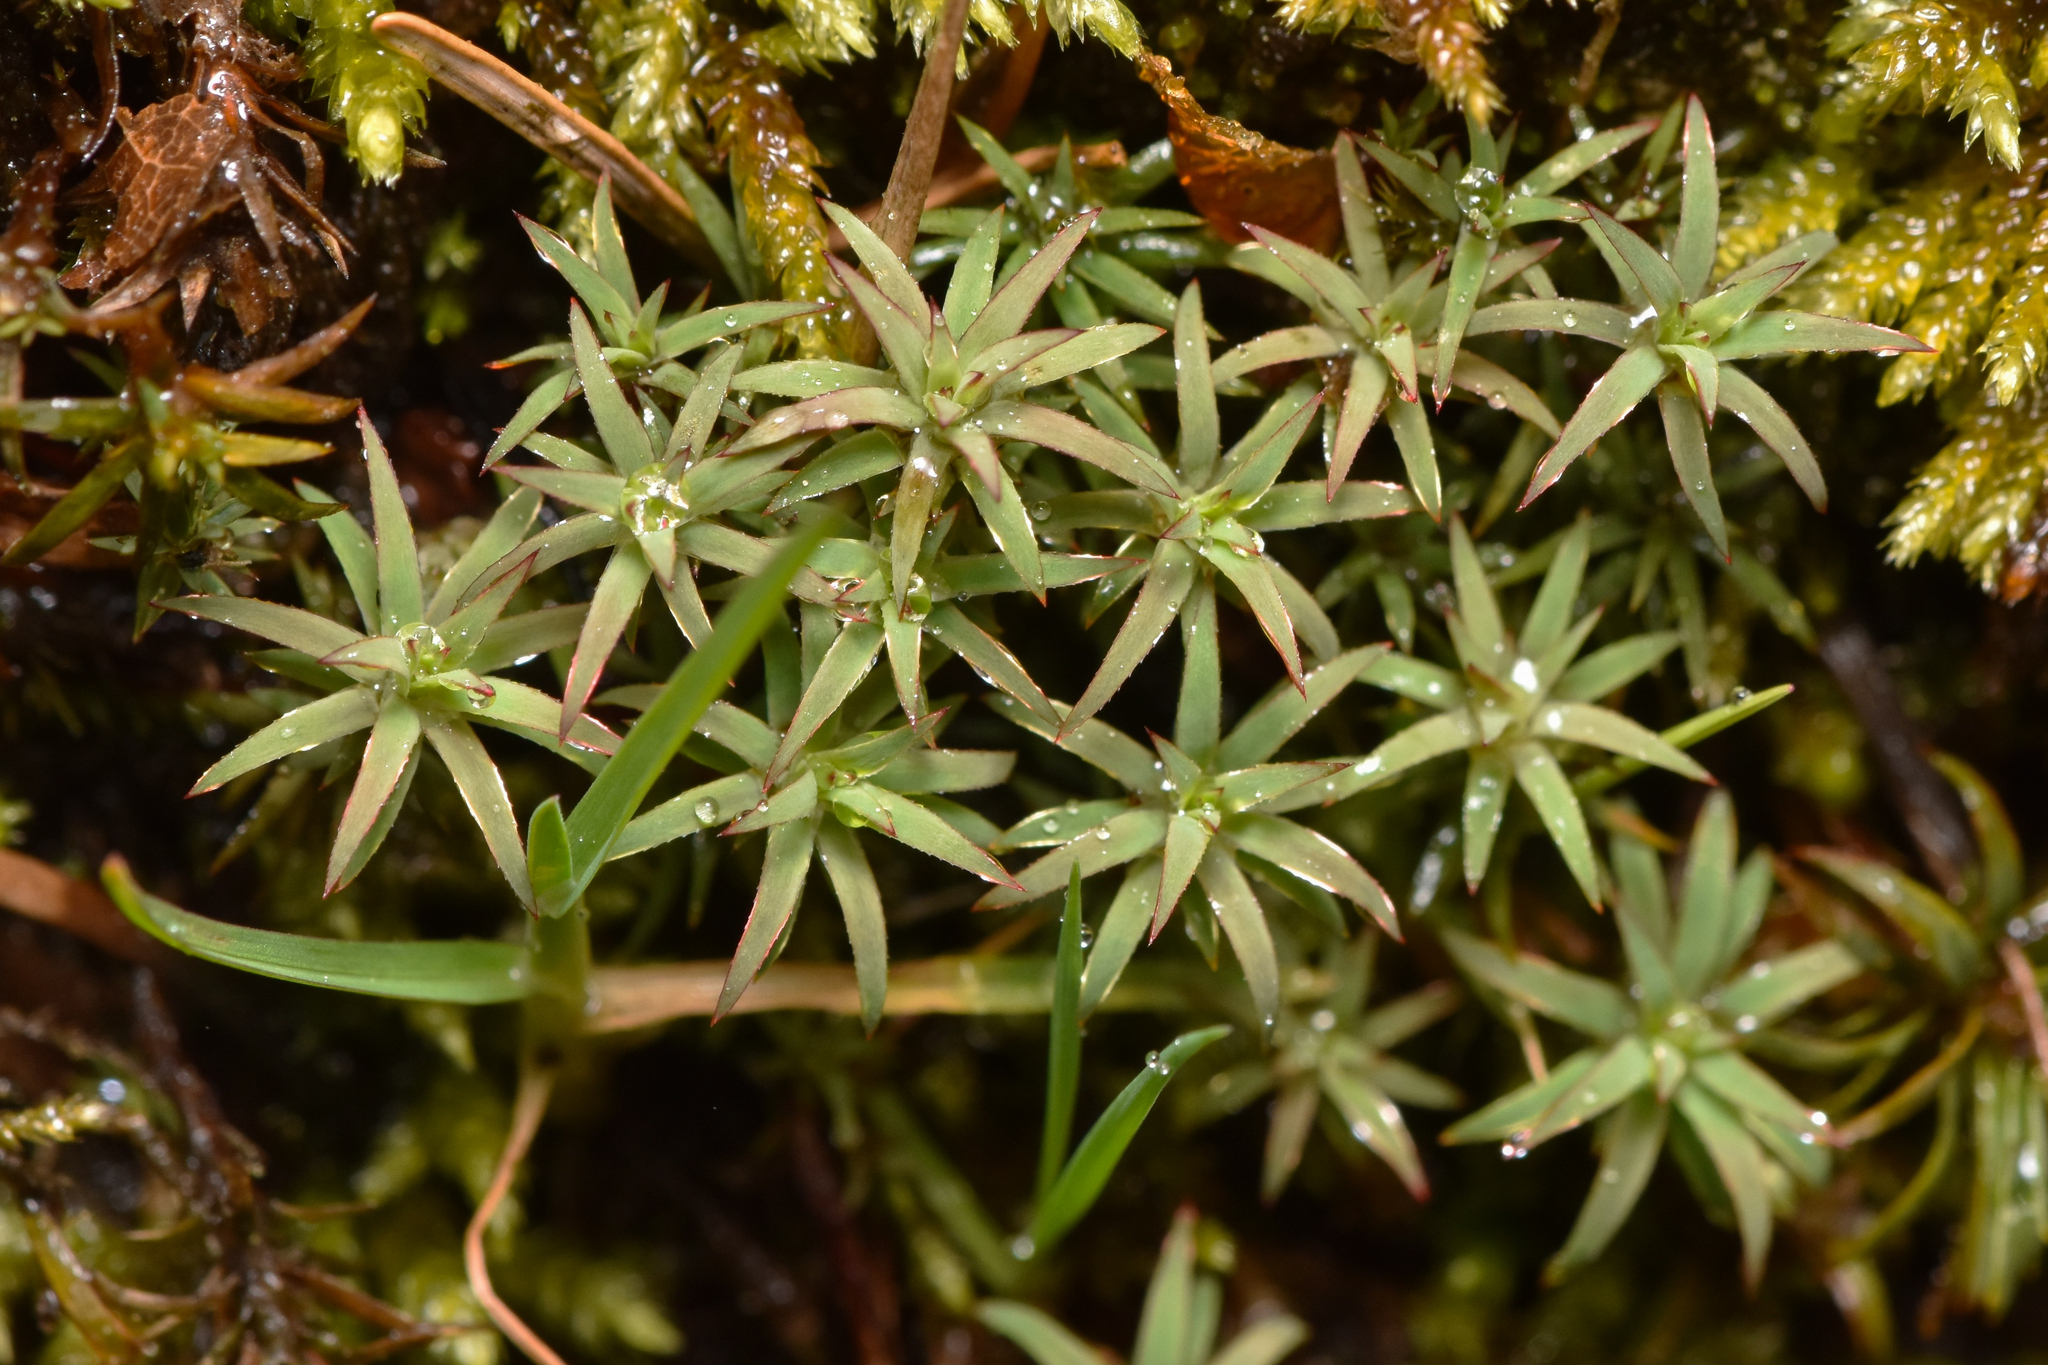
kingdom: Plantae
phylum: Bryophyta
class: Polytrichopsida
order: Polytrichales
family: Polytrichaceae
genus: Pogonatum
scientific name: Pogonatum urnigerum
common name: Urn hair moss
